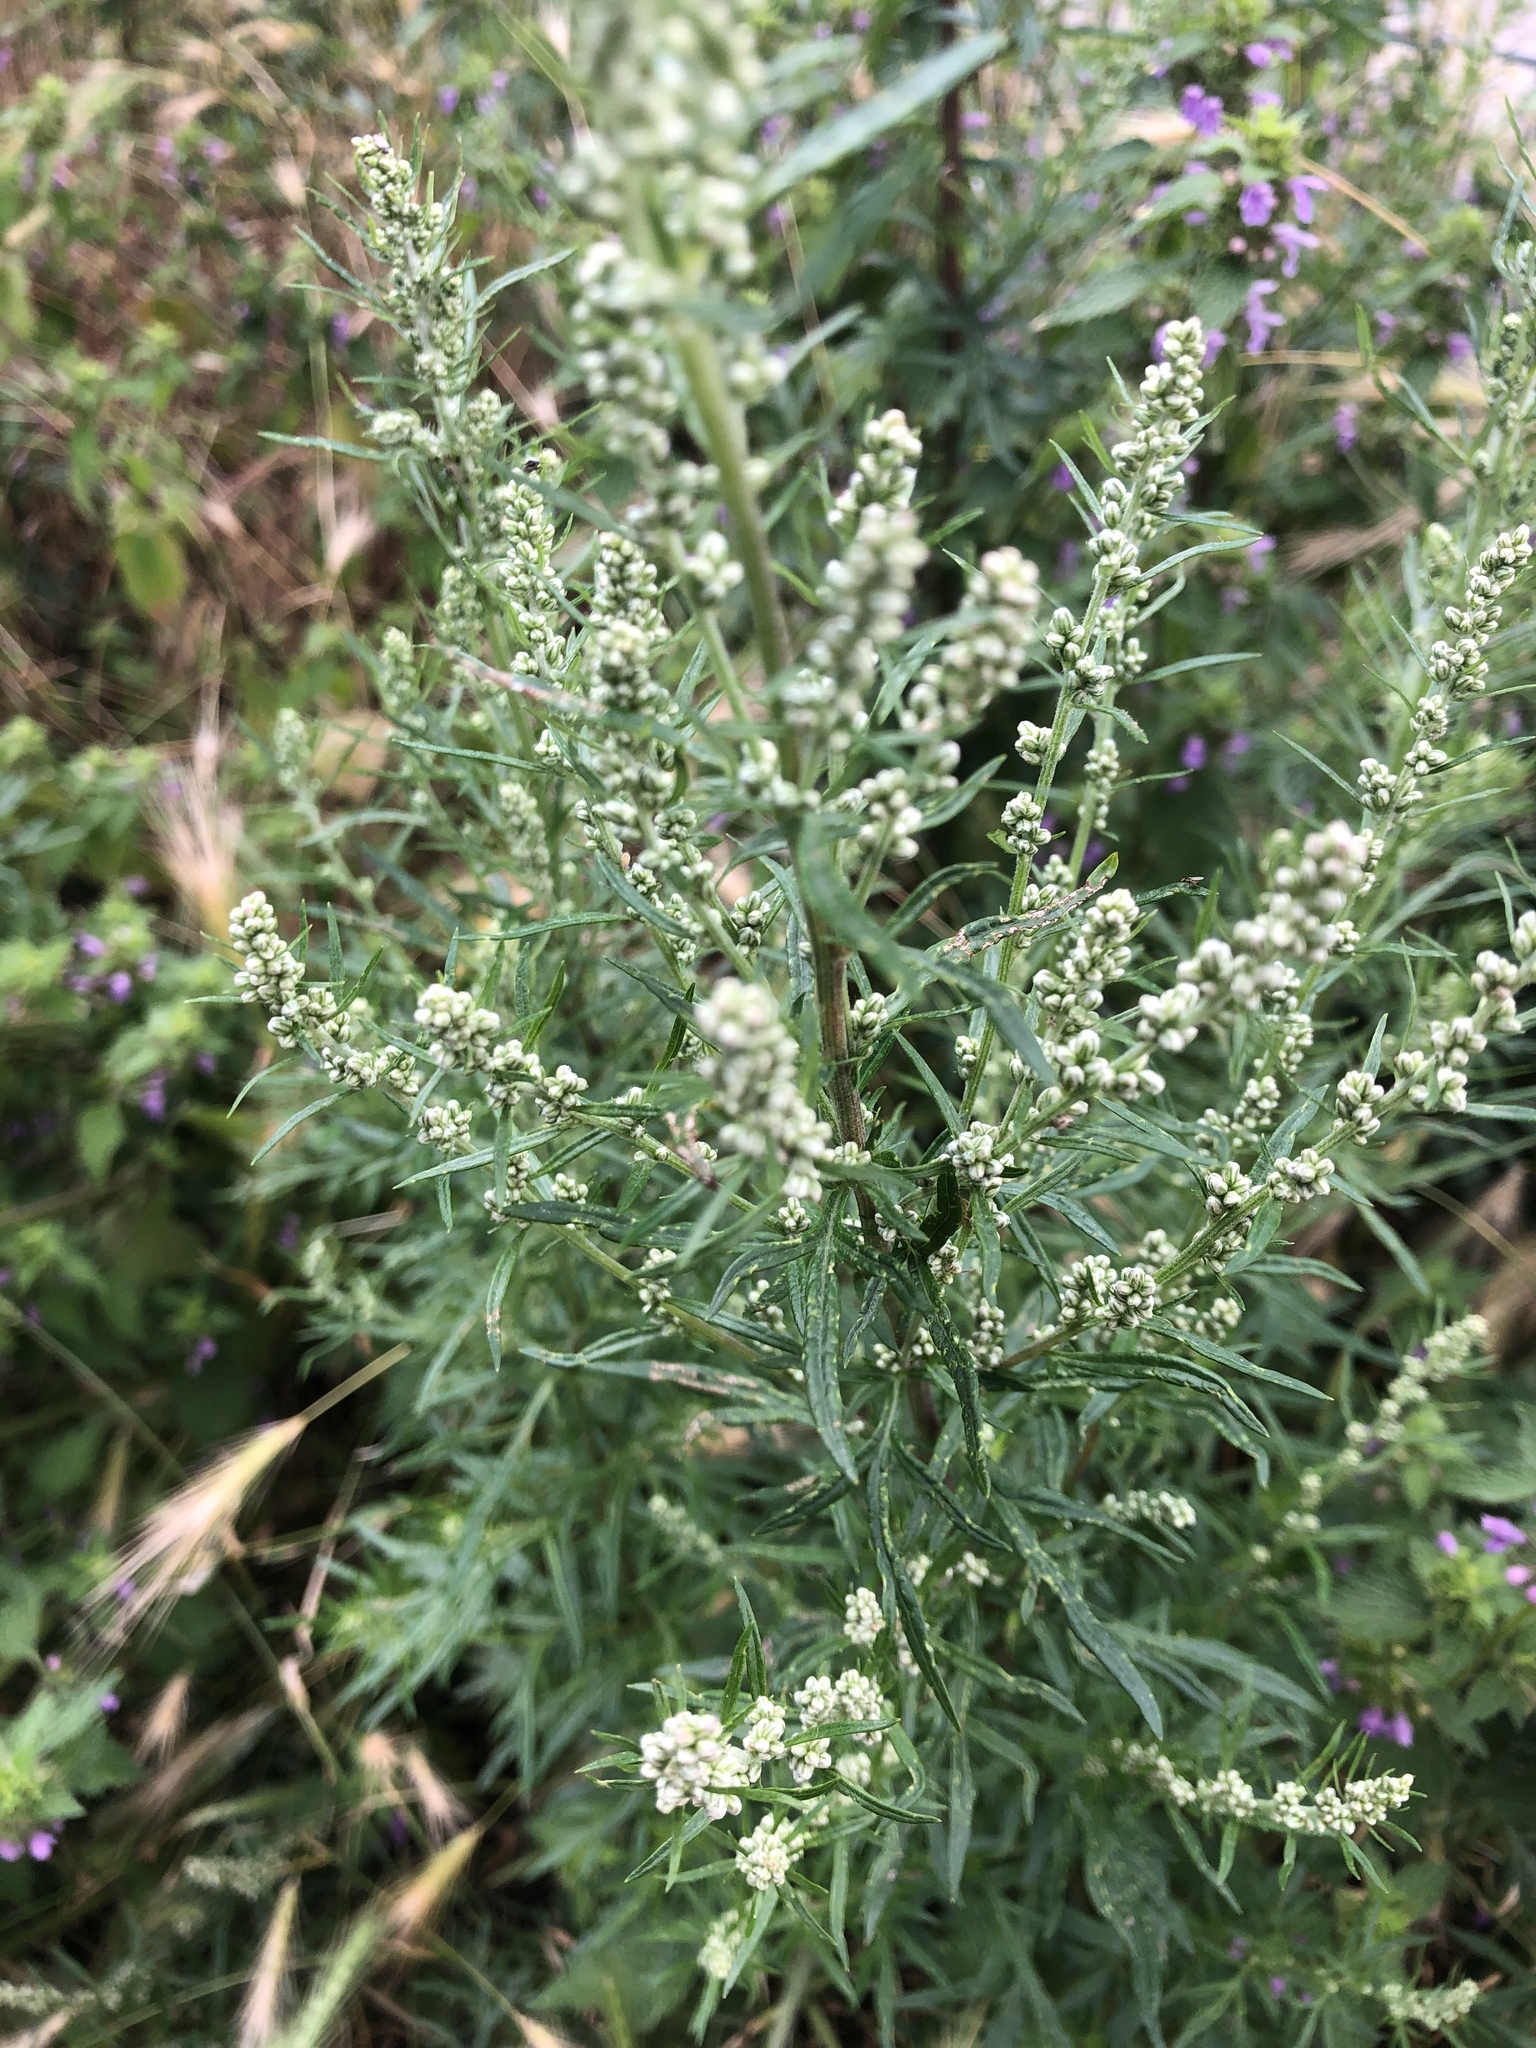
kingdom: Plantae
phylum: Tracheophyta
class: Magnoliopsida
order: Asterales
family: Asteraceae
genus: Artemisia
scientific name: Artemisia vulgaris
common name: Mugwort
